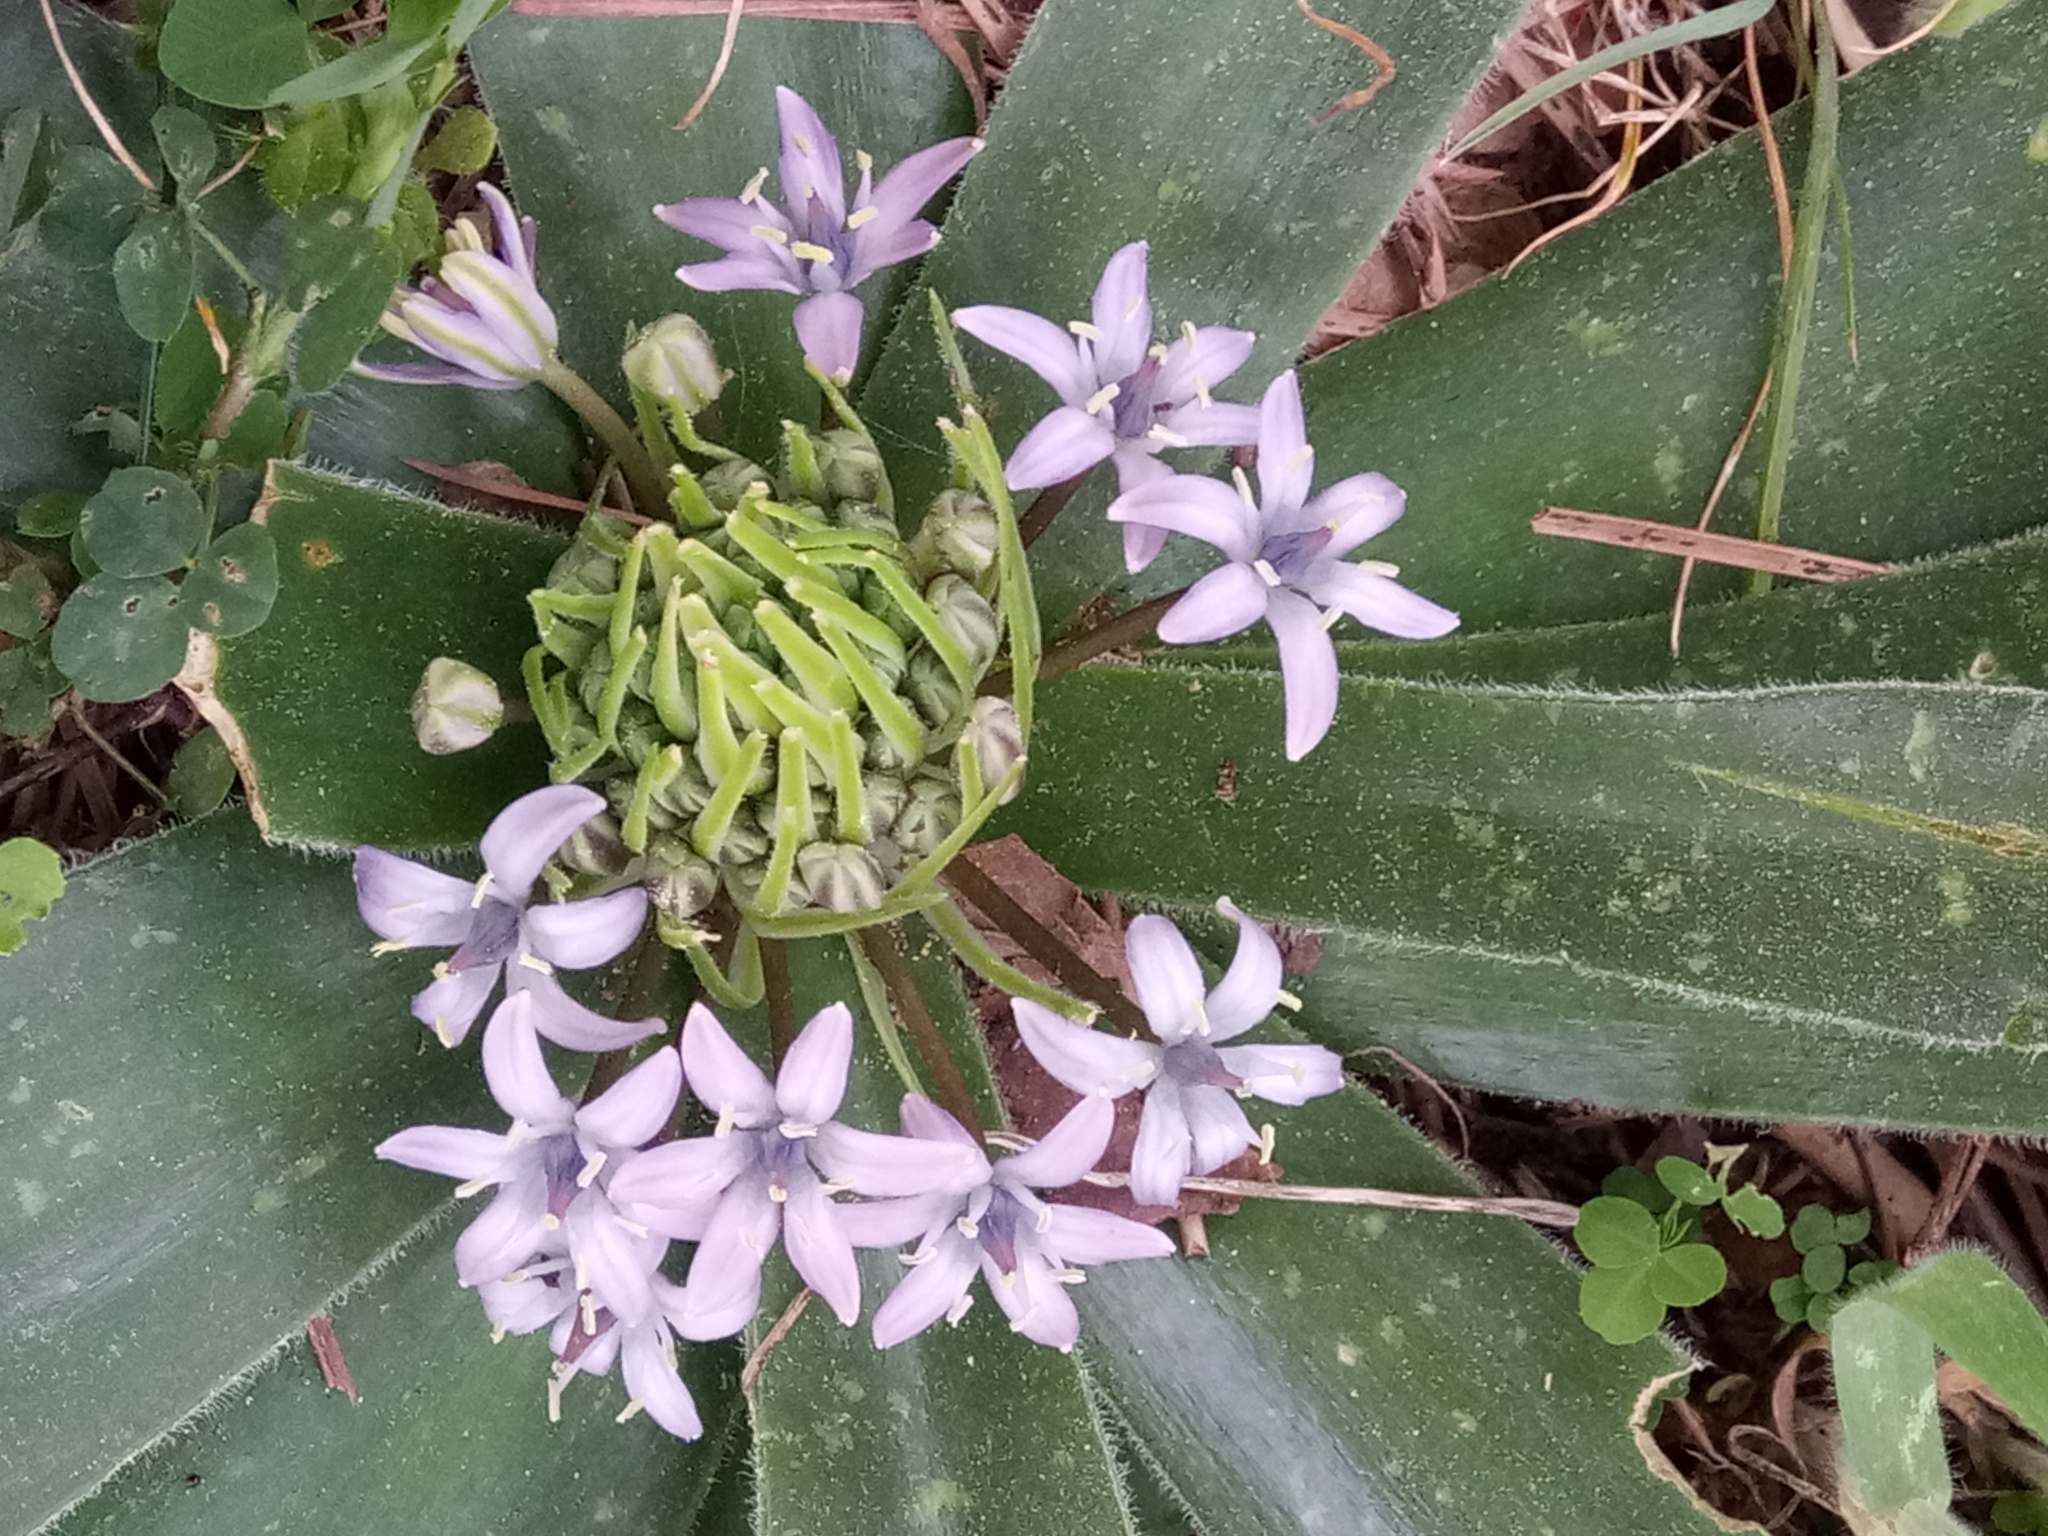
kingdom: Plantae
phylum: Tracheophyta
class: Liliopsida
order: Asparagales
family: Asparagaceae
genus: Scilla
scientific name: Scilla peruviana
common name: Portuguese squill
